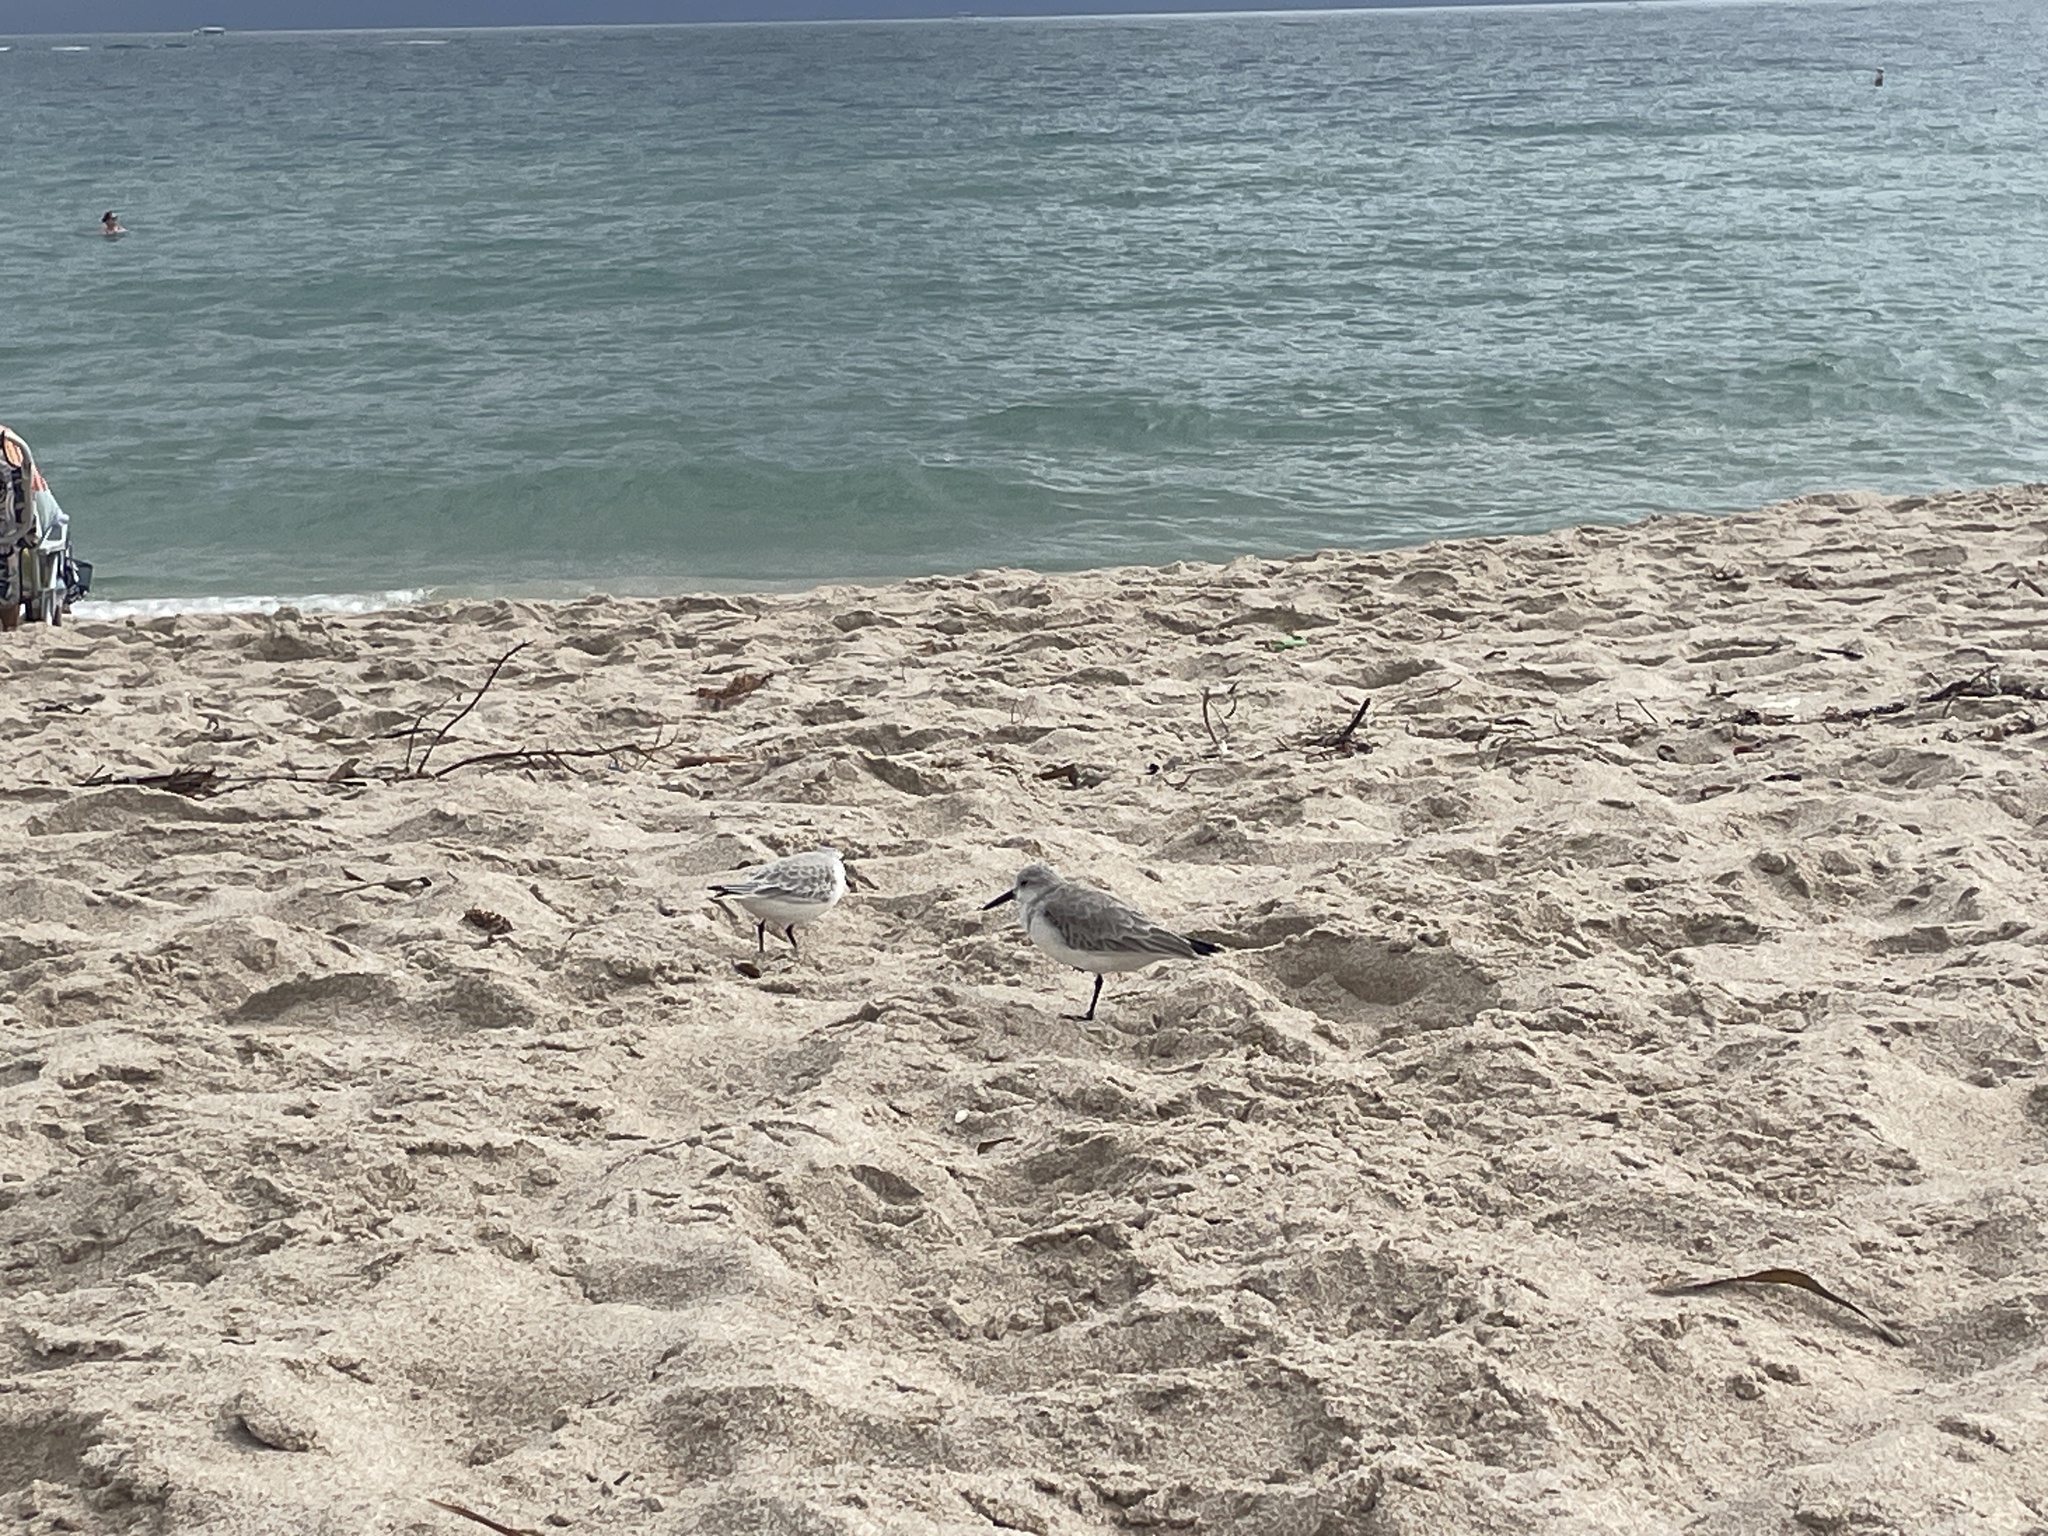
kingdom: Animalia
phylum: Chordata
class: Aves
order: Charadriiformes
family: Scolopacidae
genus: Calidris
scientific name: Calidris alba
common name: Sanderling
